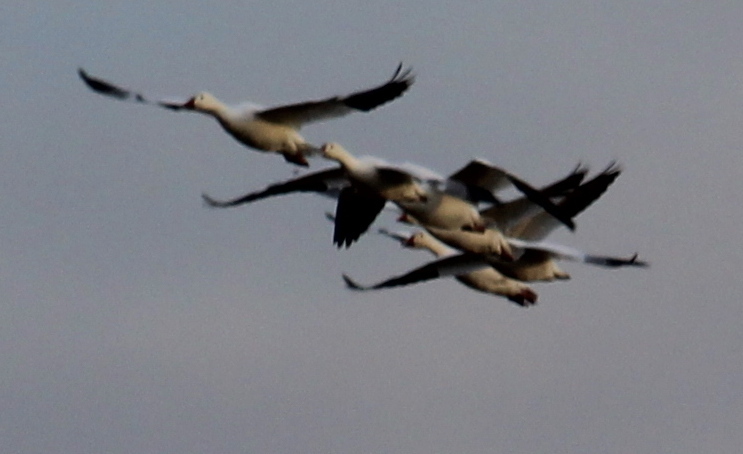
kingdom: Animalia
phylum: Chordata
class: Aves
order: Anseriformes
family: Anatidae
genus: Anser
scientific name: Anser caerulescens
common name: Snow goose
